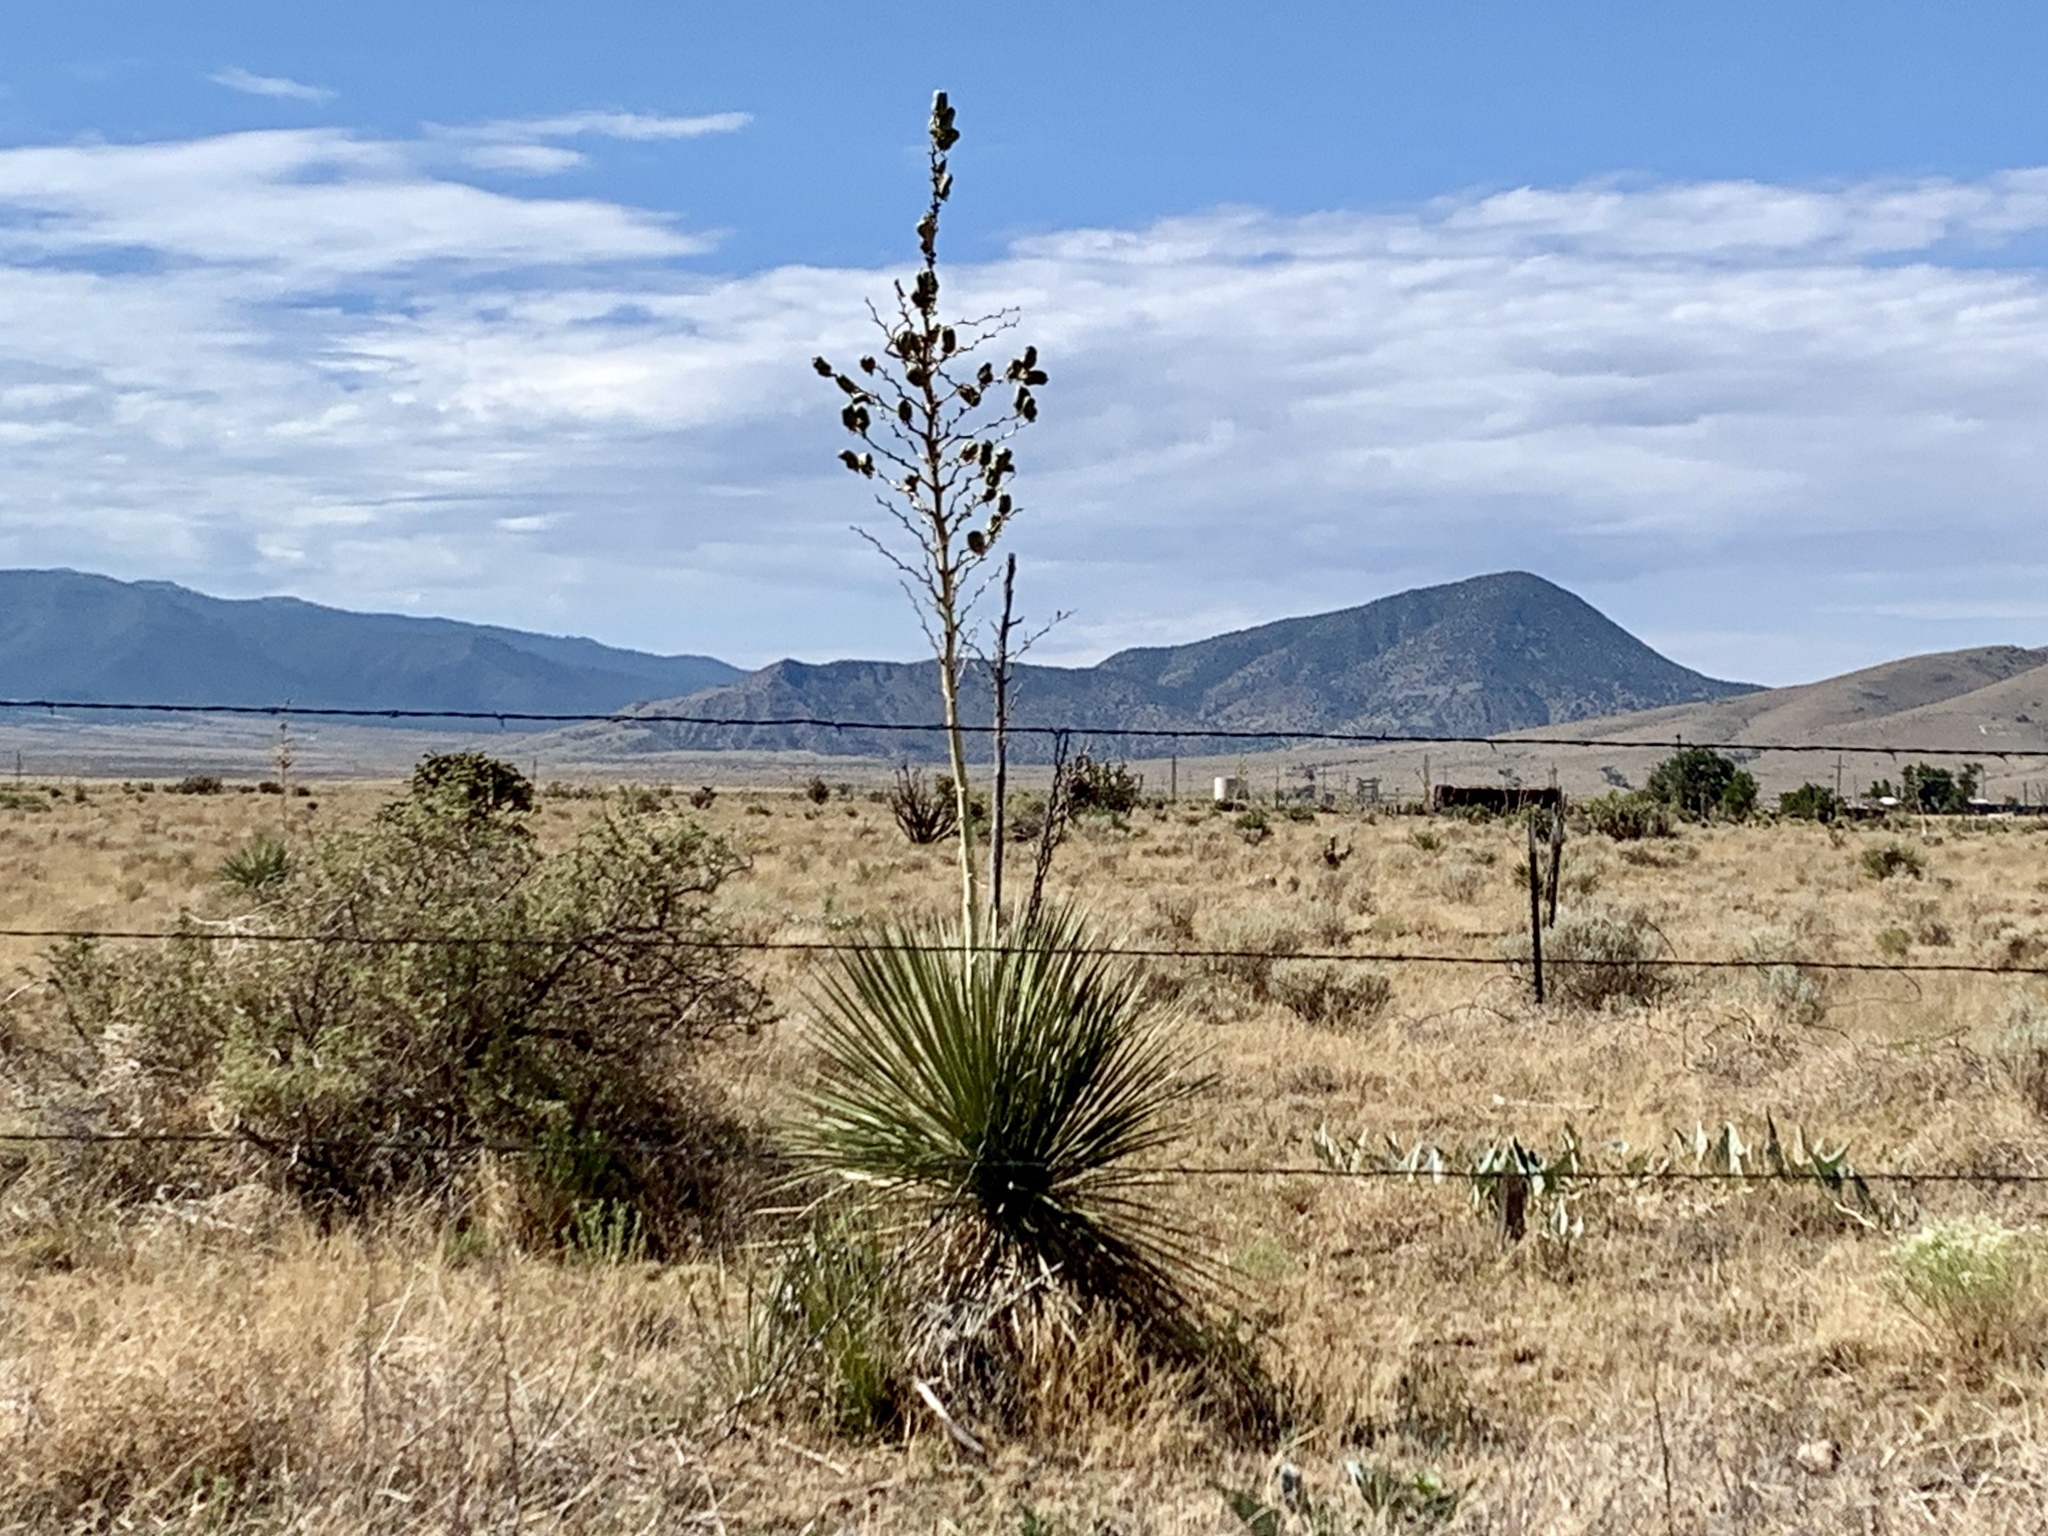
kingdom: Plantae
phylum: Tracheophyta
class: Liliopsida
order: Asparagales
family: Asparagaceae
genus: Yucca
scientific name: Yucca elata
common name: Palmella
